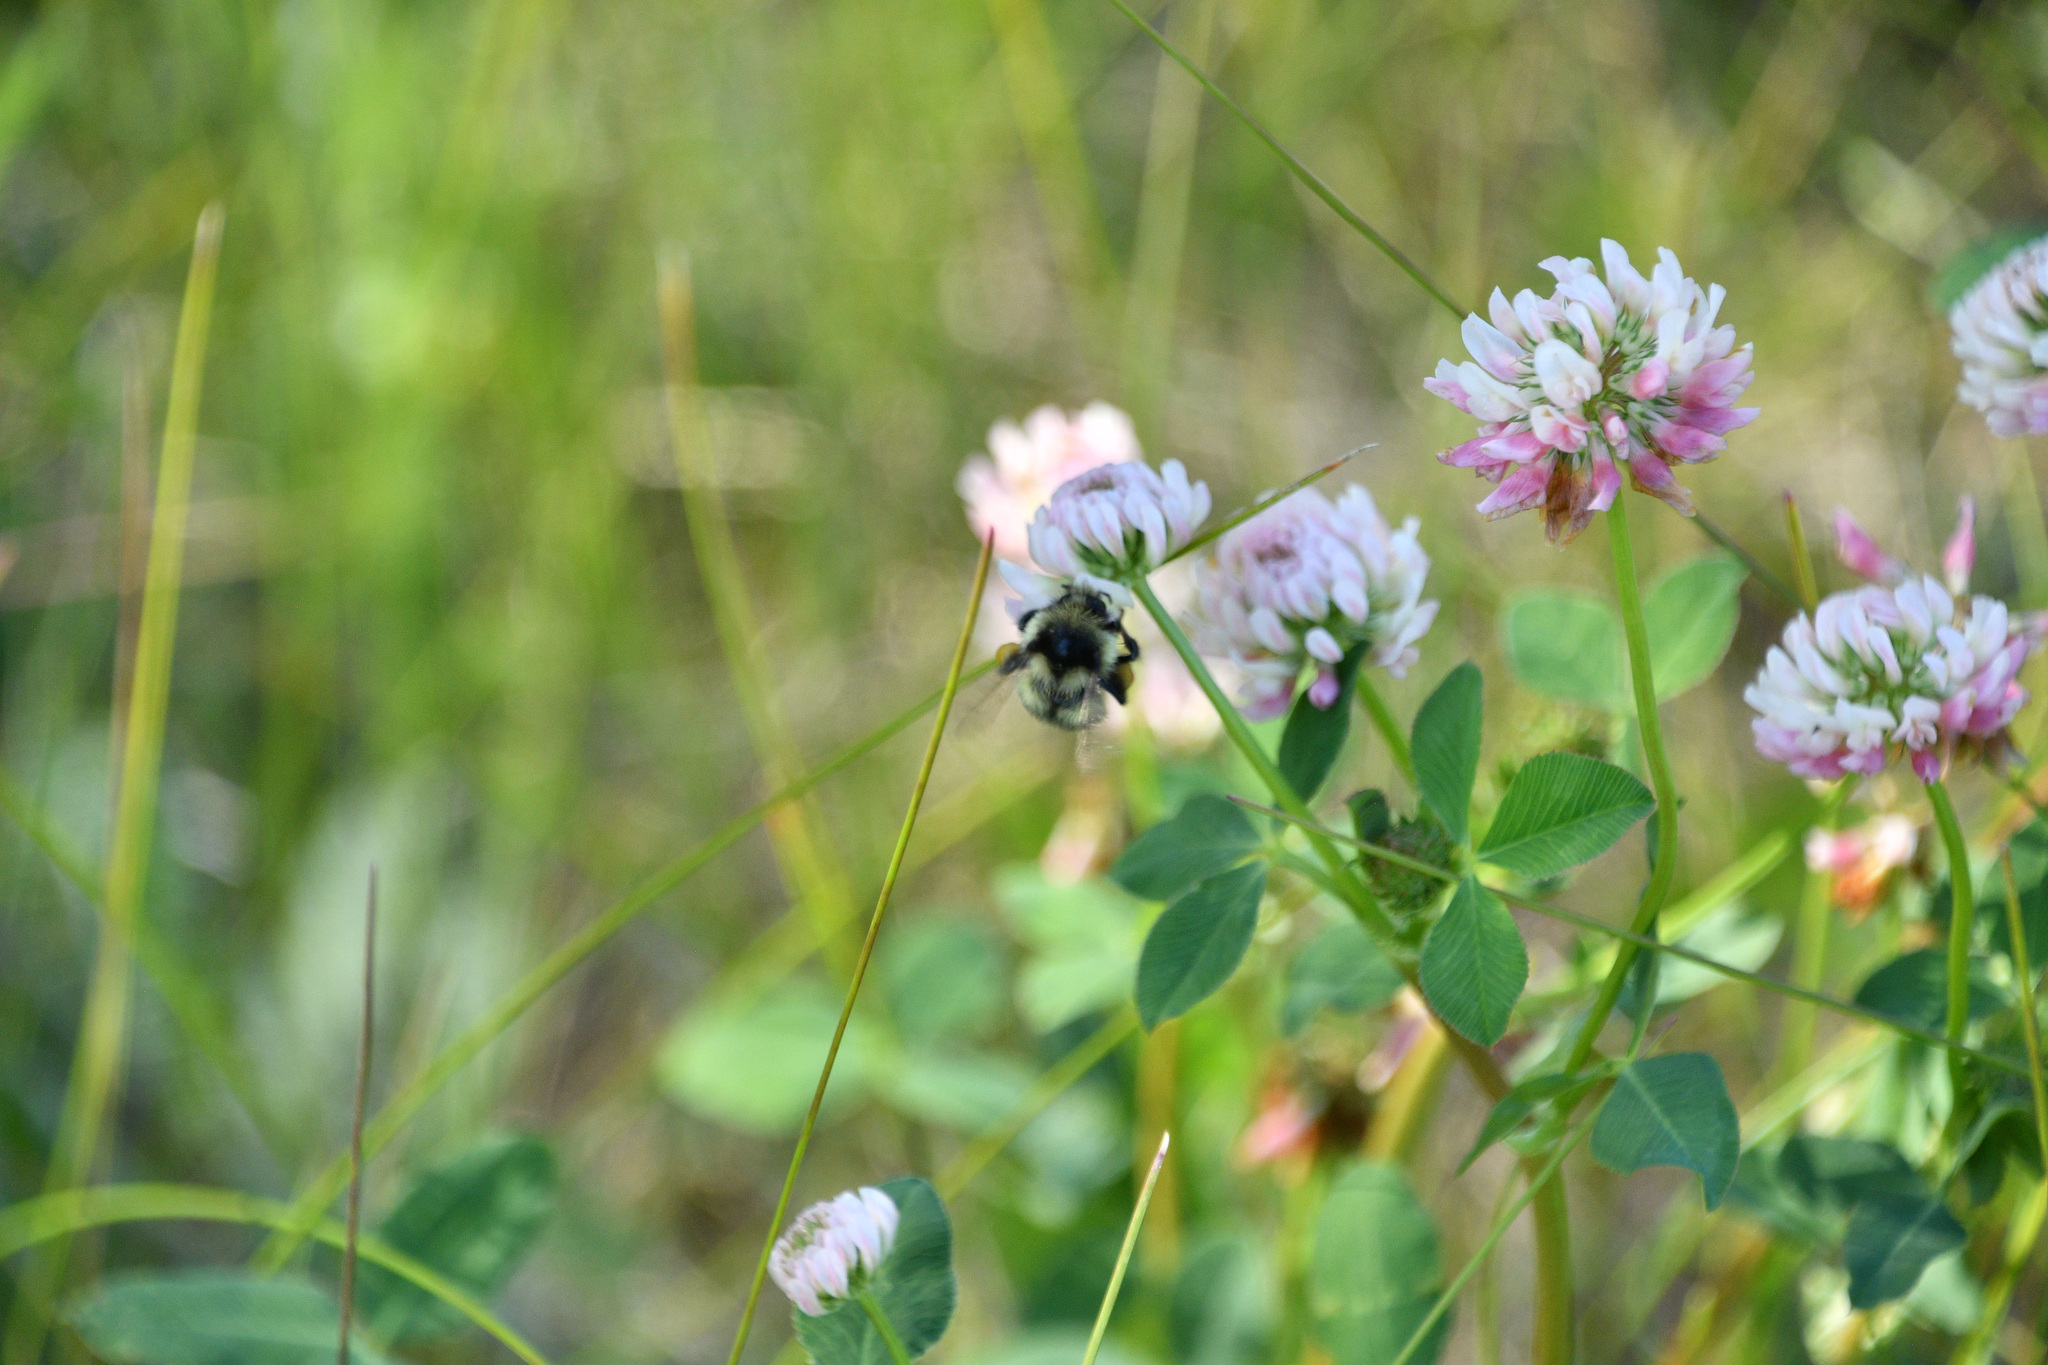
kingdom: Animalia
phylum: Arthropoda
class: Insecta
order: Hymenoptera
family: Apidae
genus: Bombus
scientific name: Bombus vancouverensis
